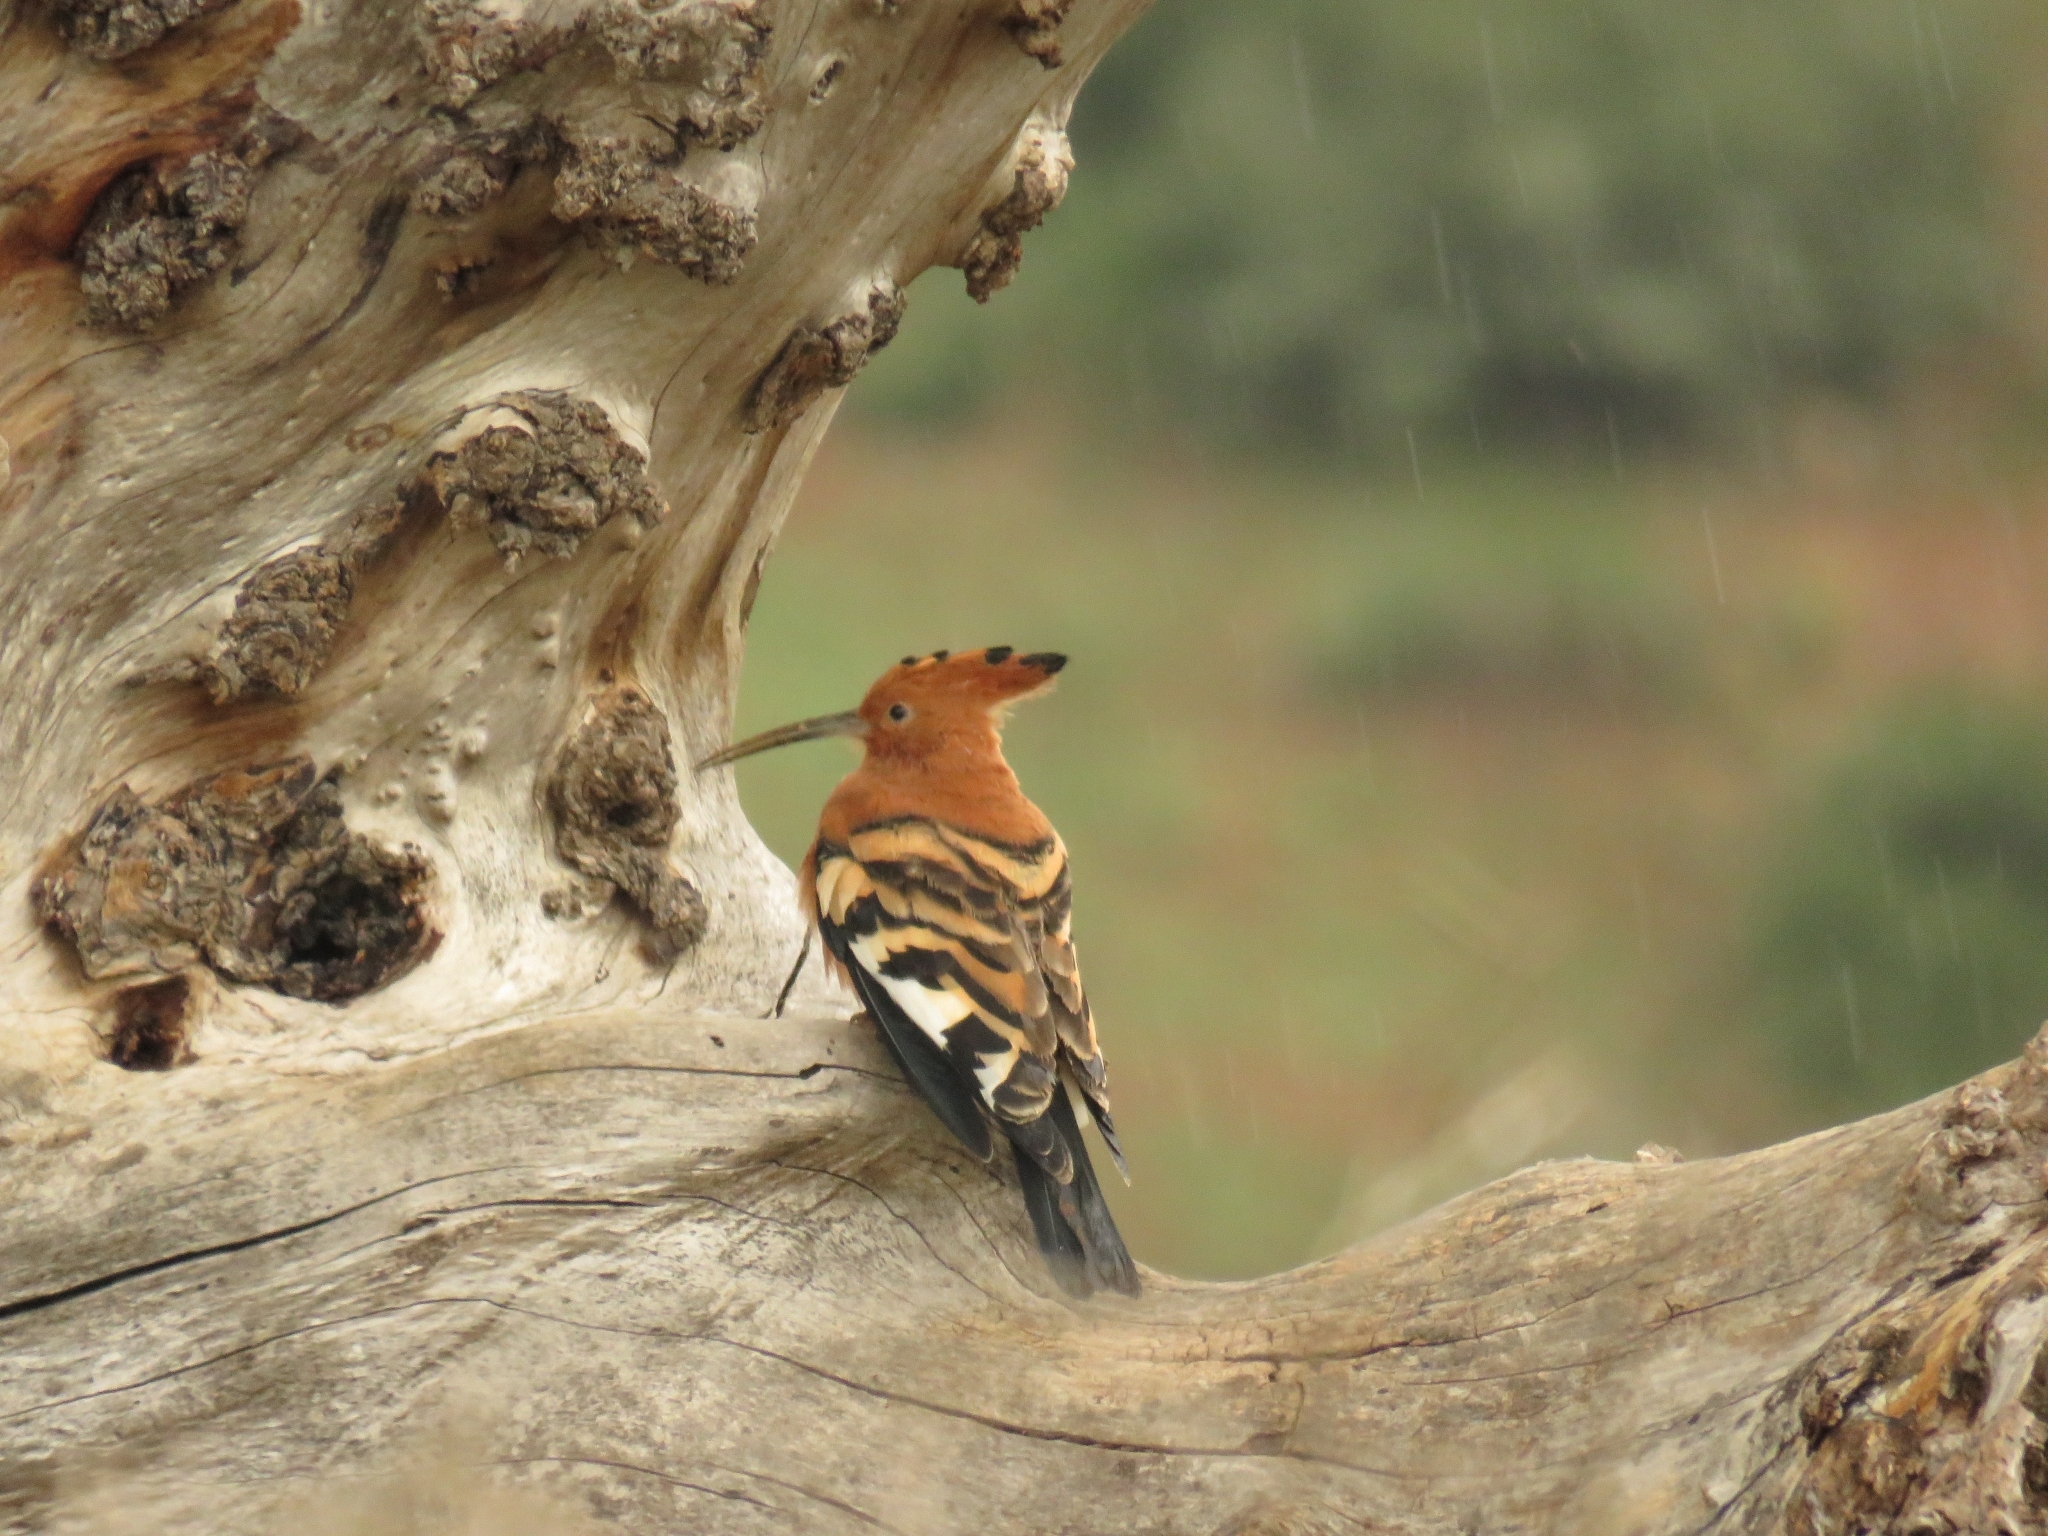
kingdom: Animalia
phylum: Chordata
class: Aves
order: Bucerotiformes
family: Upupidae
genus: Upupa
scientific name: Upupa africana
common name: African hoopoe
